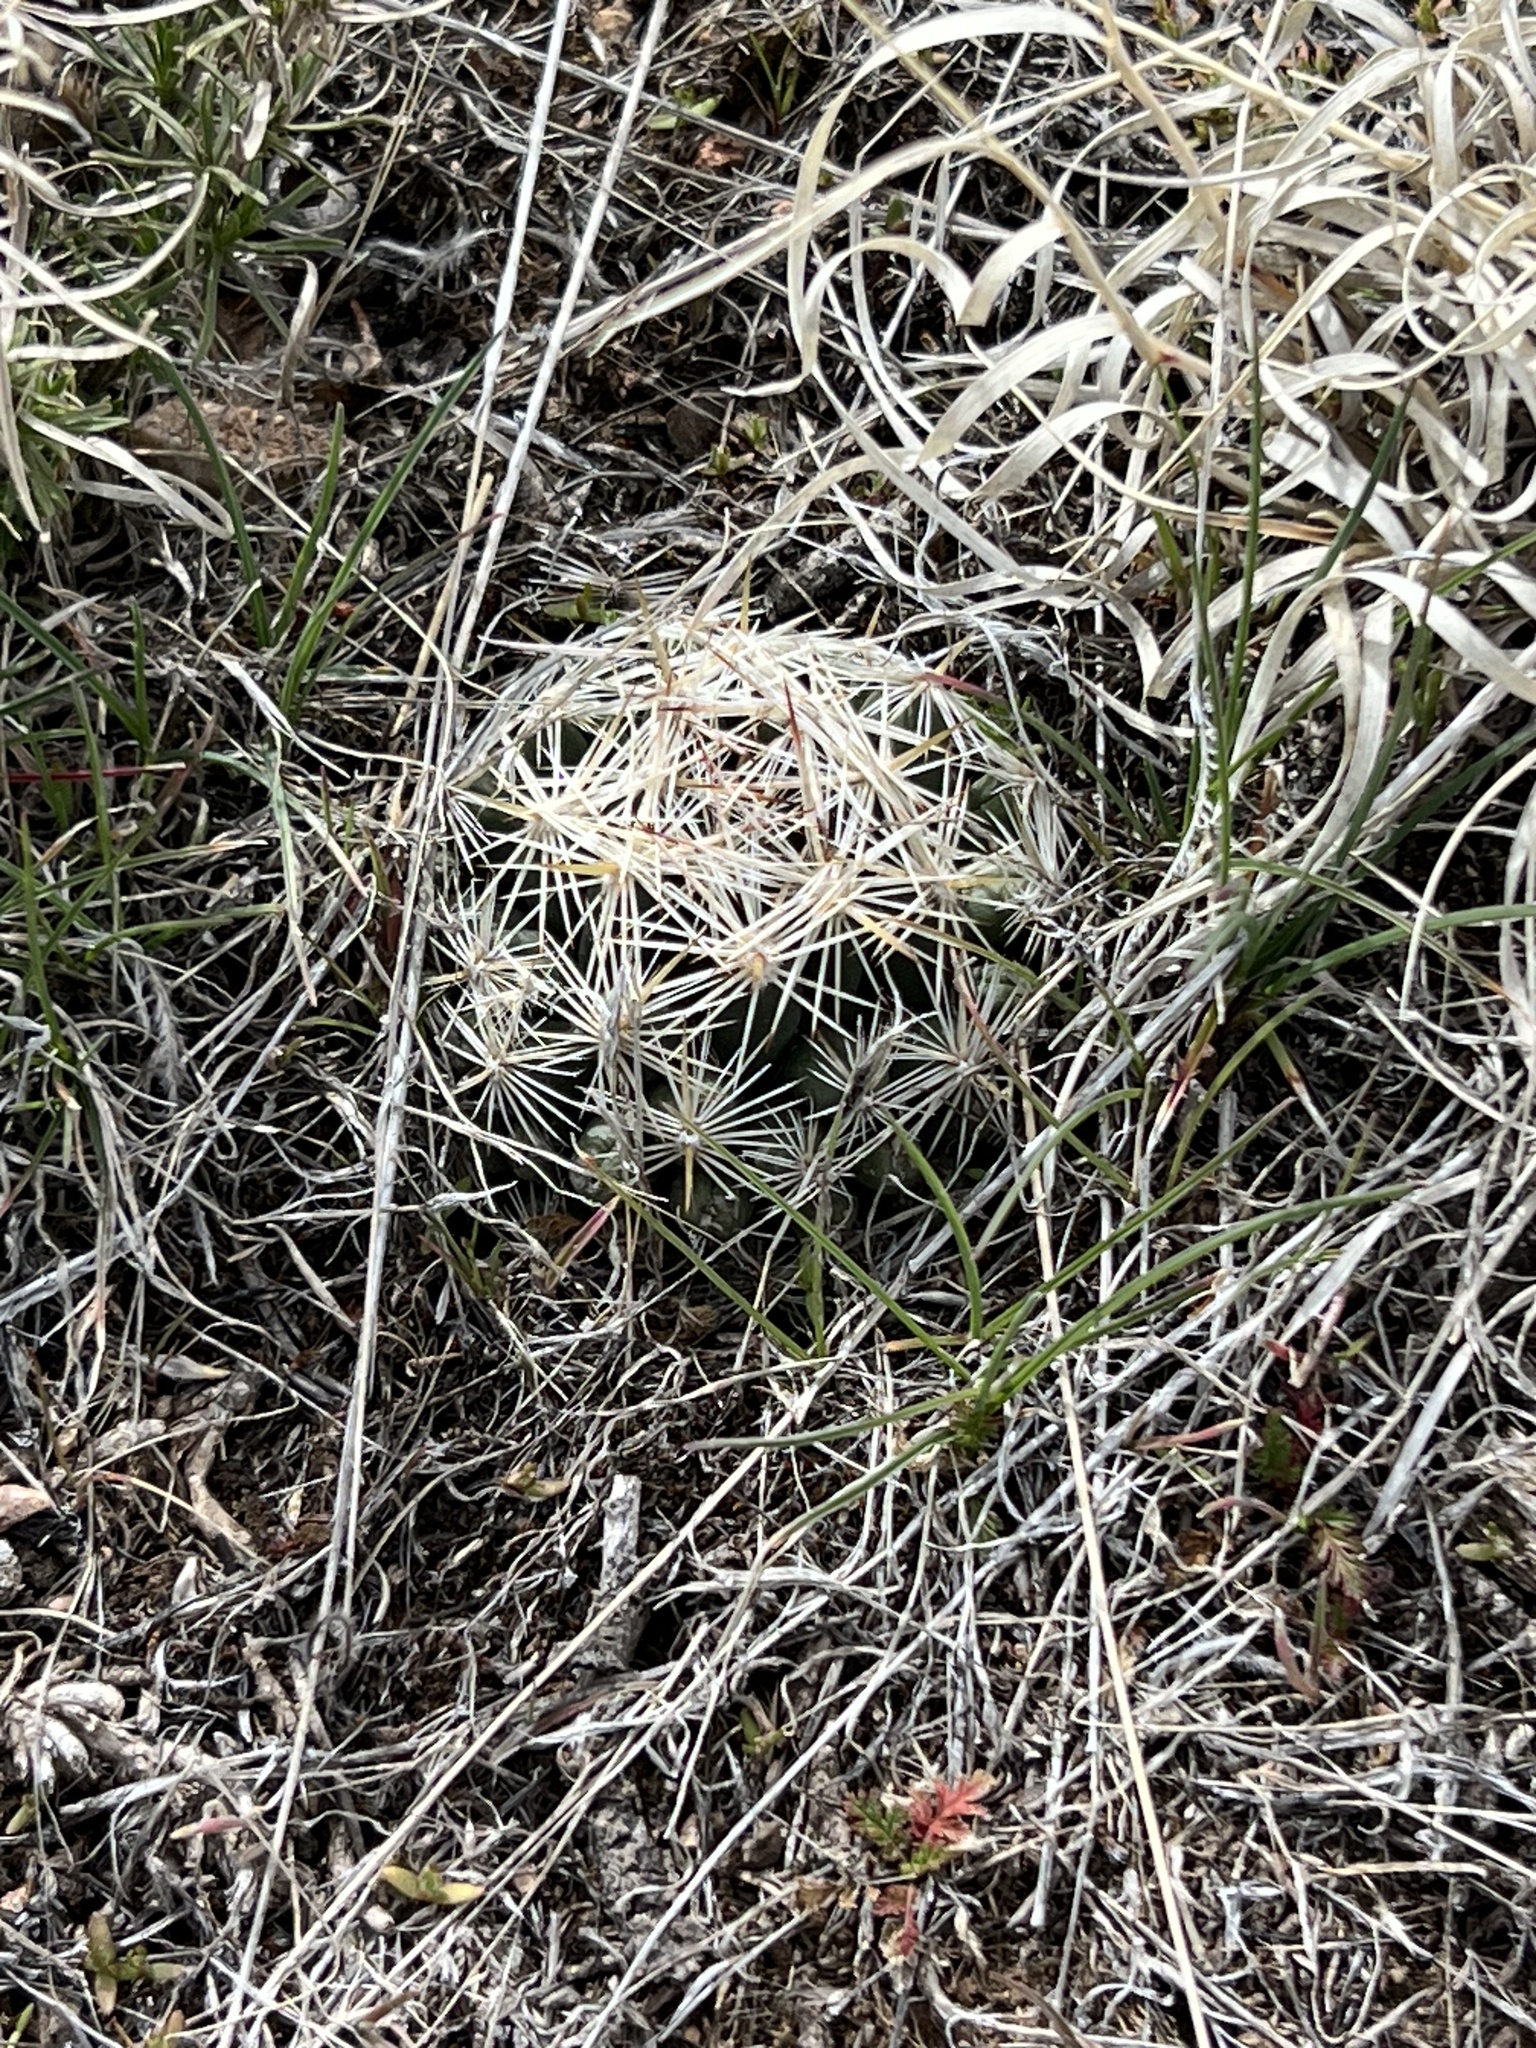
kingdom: Plantae
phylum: Tracheophyta
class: Magnoliopsida
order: Caryophyllales
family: Cactaceae
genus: Pelecyphora
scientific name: Pelecyphora vivipara
